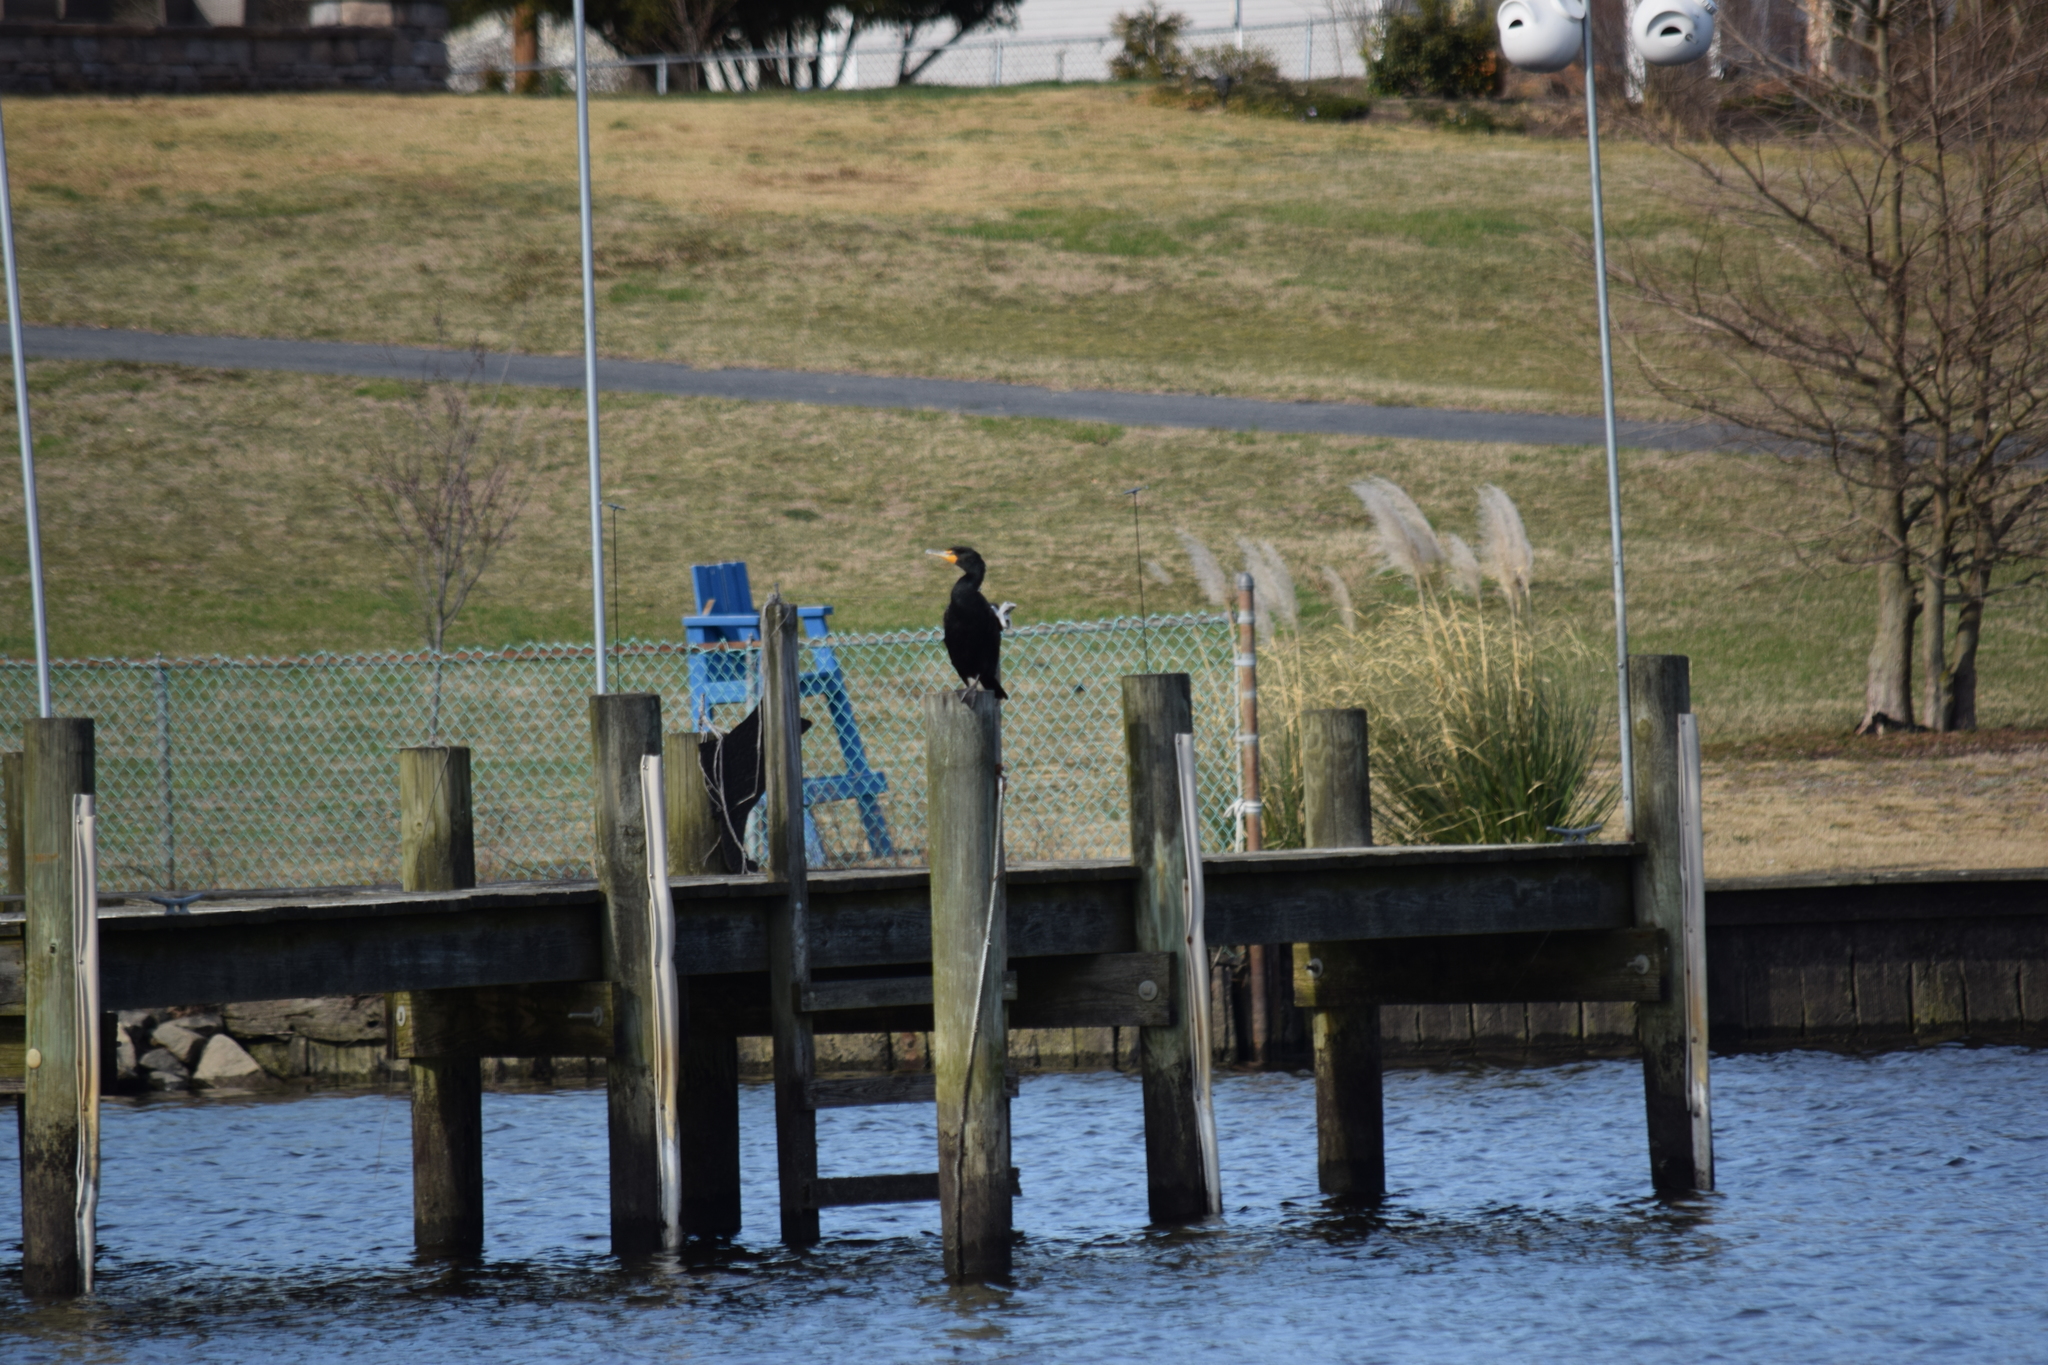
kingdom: Animalia
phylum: Chordata
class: Aves
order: Suliformes
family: Phalacrocoracidae
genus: Phalacrocorax
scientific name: Phalacrocorax auritus
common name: Double-crested cormorant
